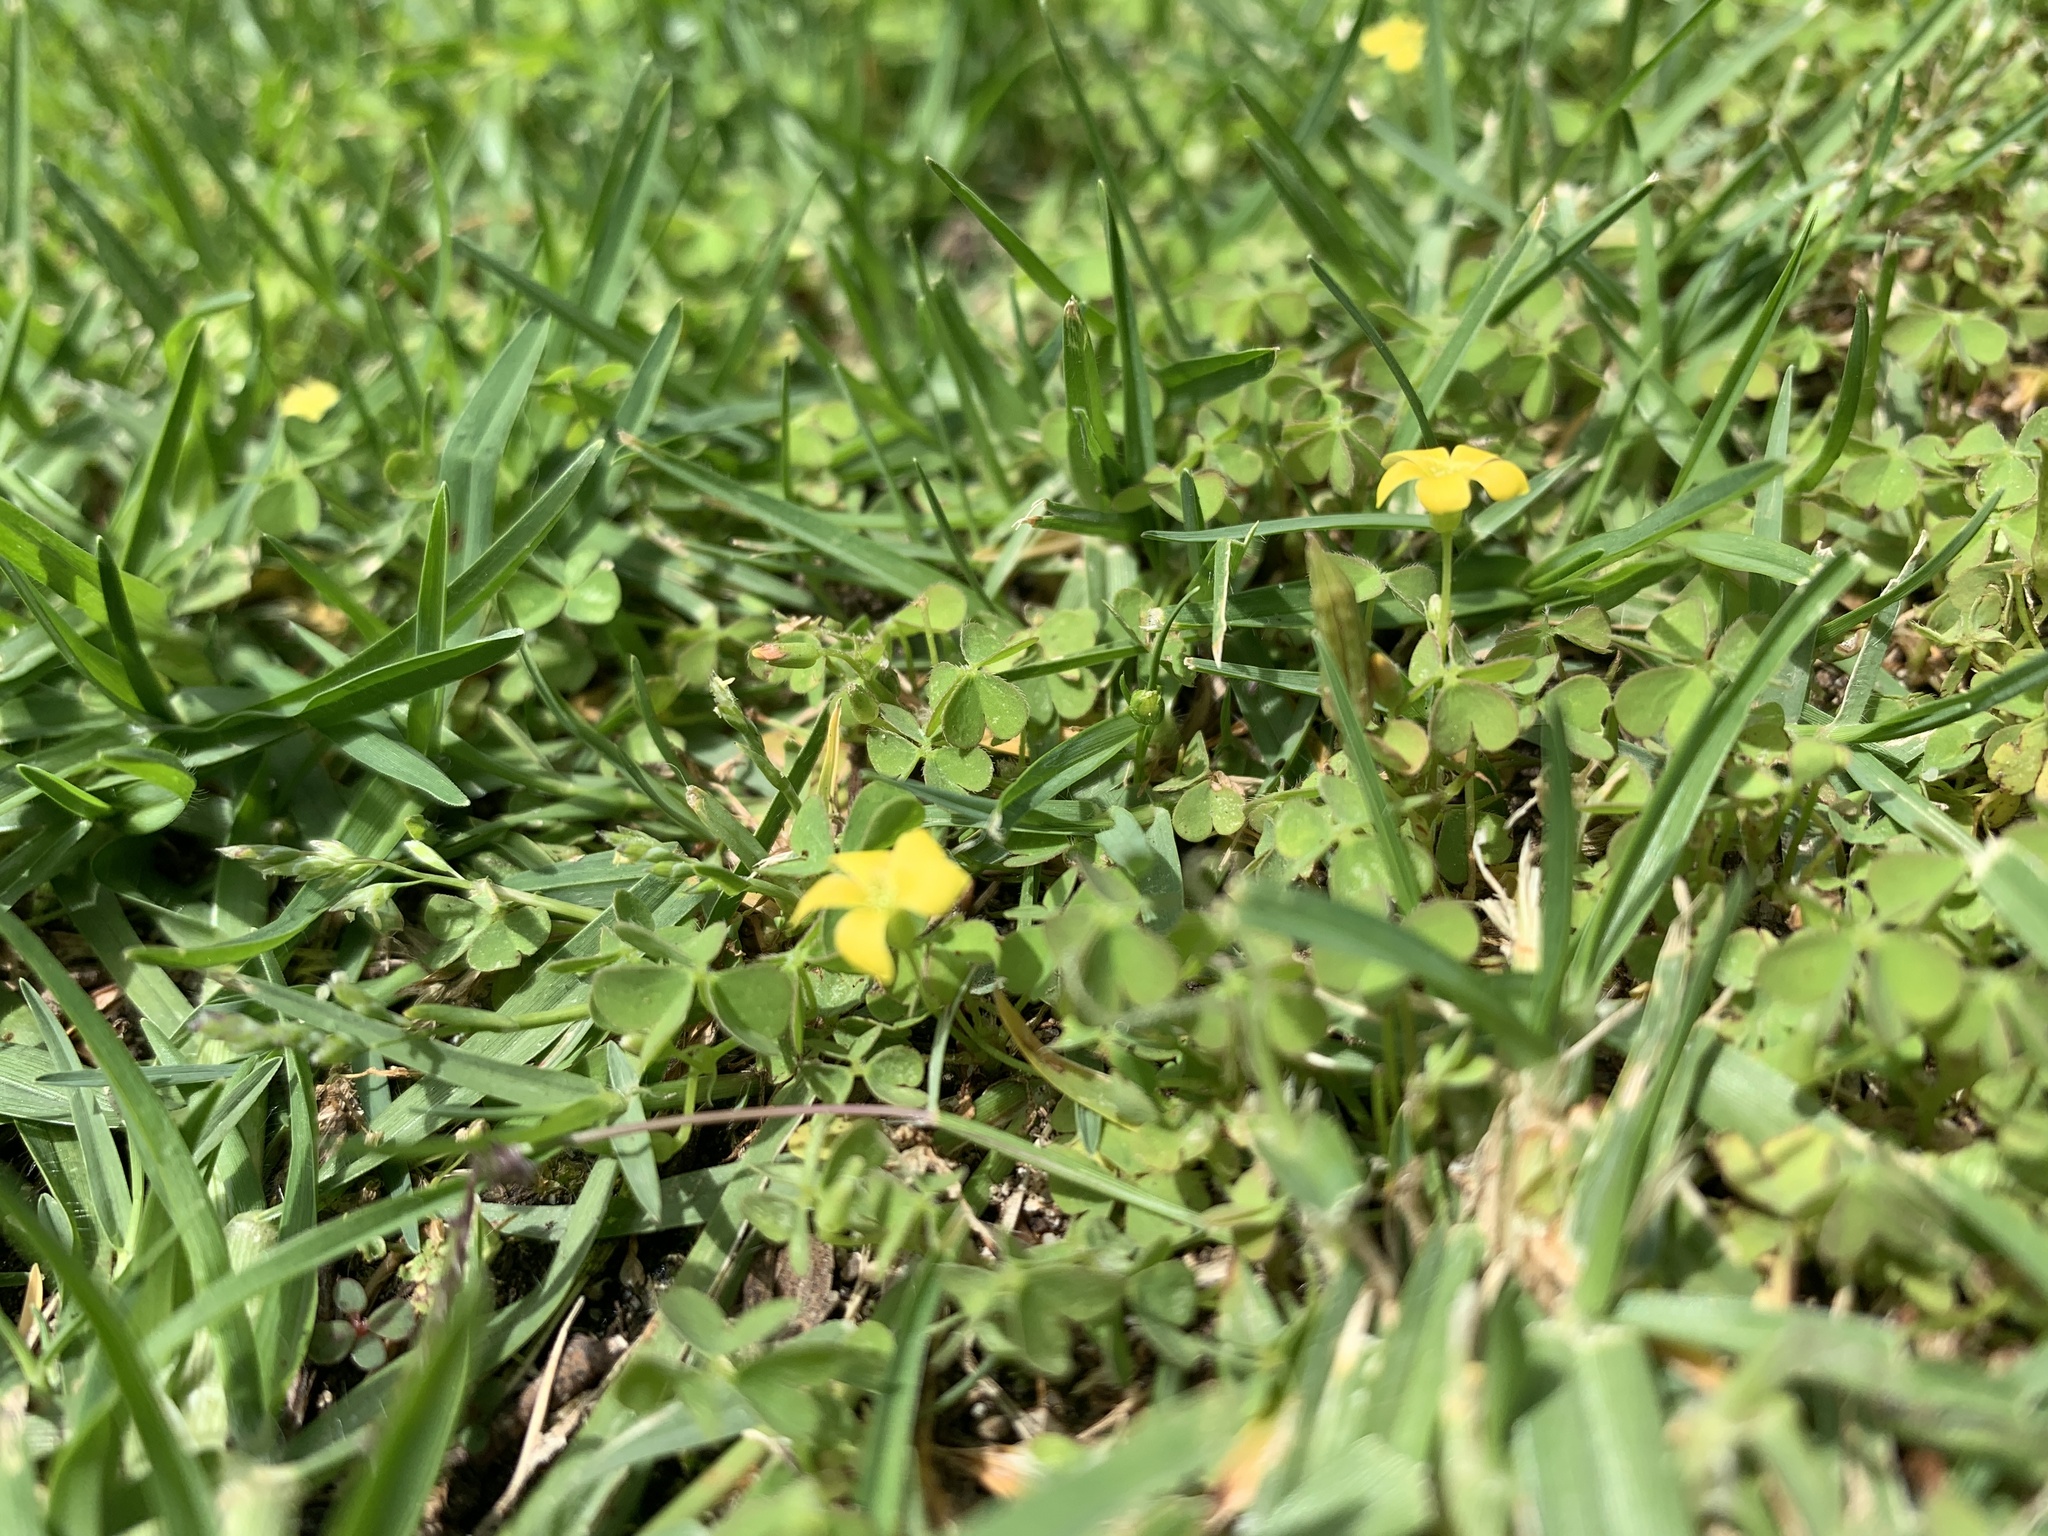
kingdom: Plantae
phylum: Tracheophyta
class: Magnoliopsida
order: Oxalidales
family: Oxalidaceae
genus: Oxalis
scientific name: Oxalis exilis
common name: Least yellow-sorrel
